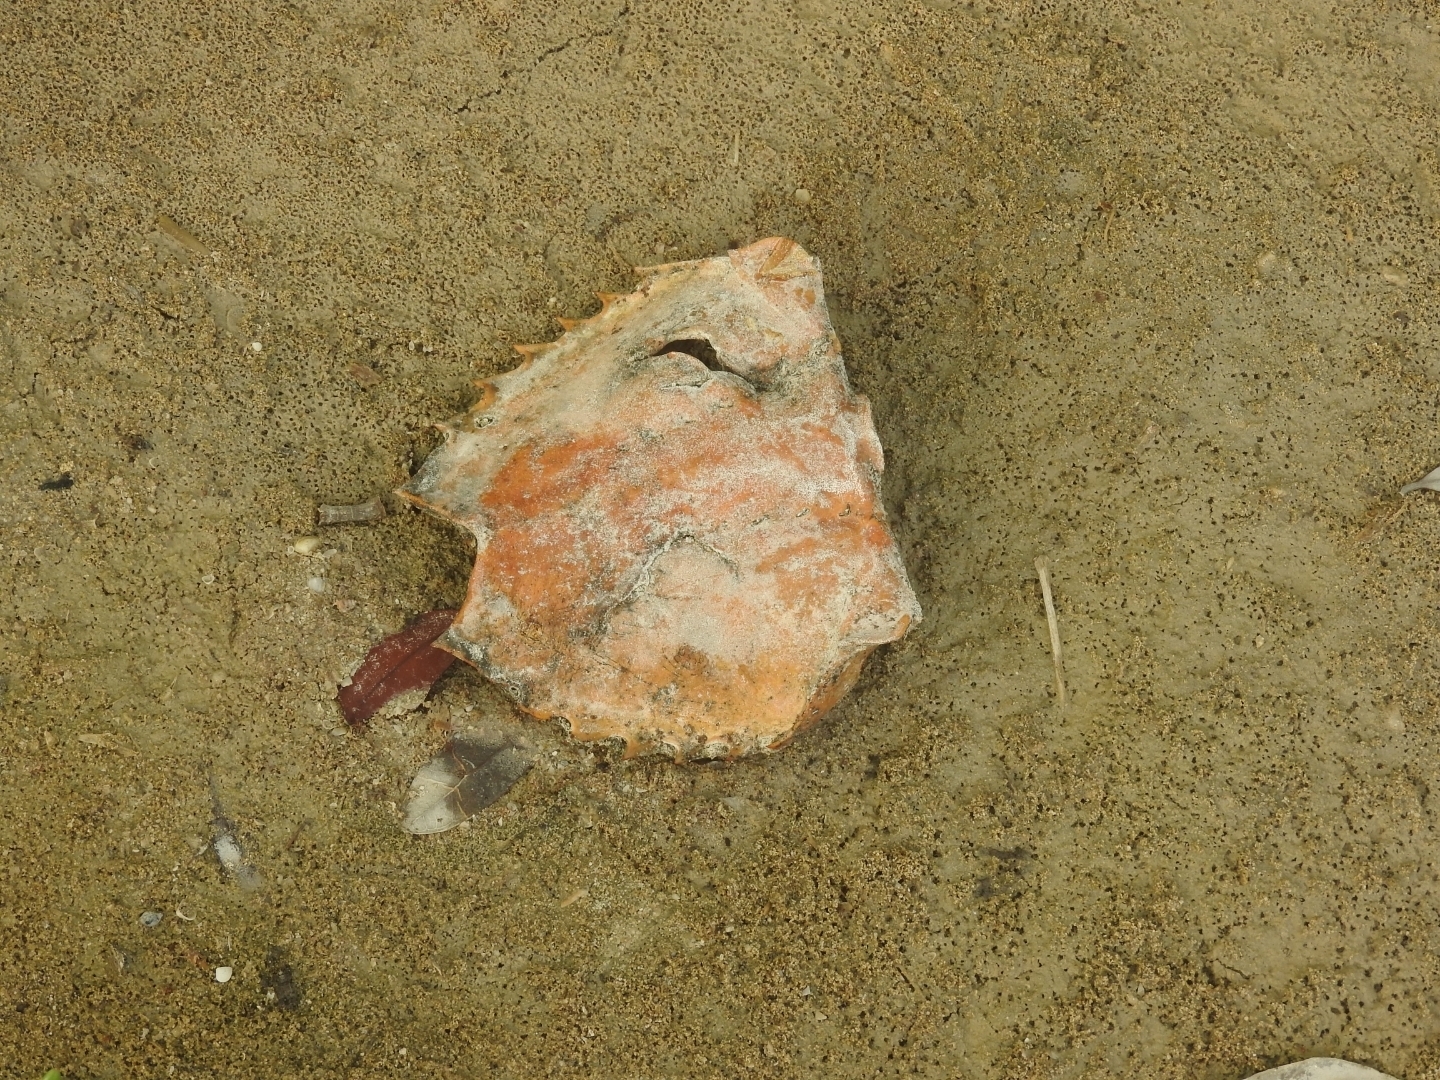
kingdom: Animalia
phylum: Arthropoda
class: Merostomata
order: Xiphosurida
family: Limulidae
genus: Limulus
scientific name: Limulus polyphemus
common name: Horseshoe crab
